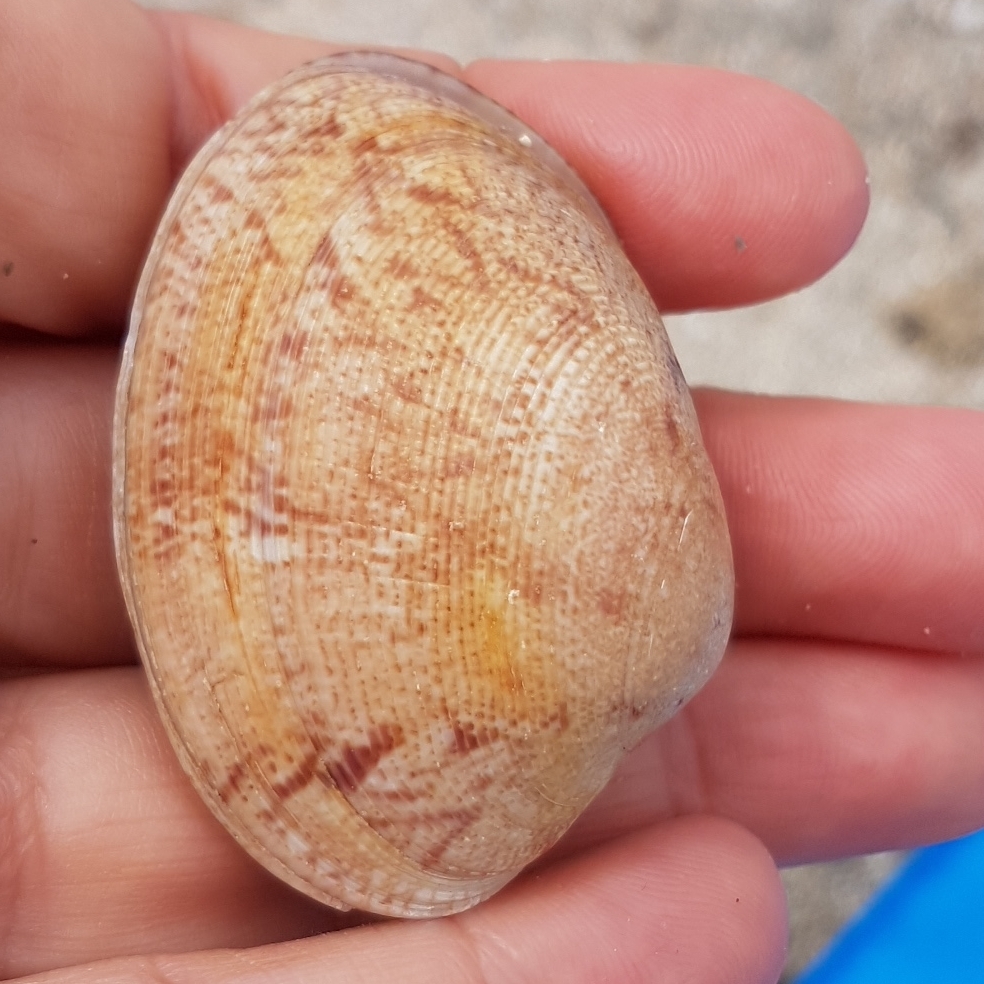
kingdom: Animalia
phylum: Mollusca
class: Bivalvia
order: Venerida
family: Veneridae
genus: Polititapes
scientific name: Polititapes rhomboides
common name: Banded carpet shell
